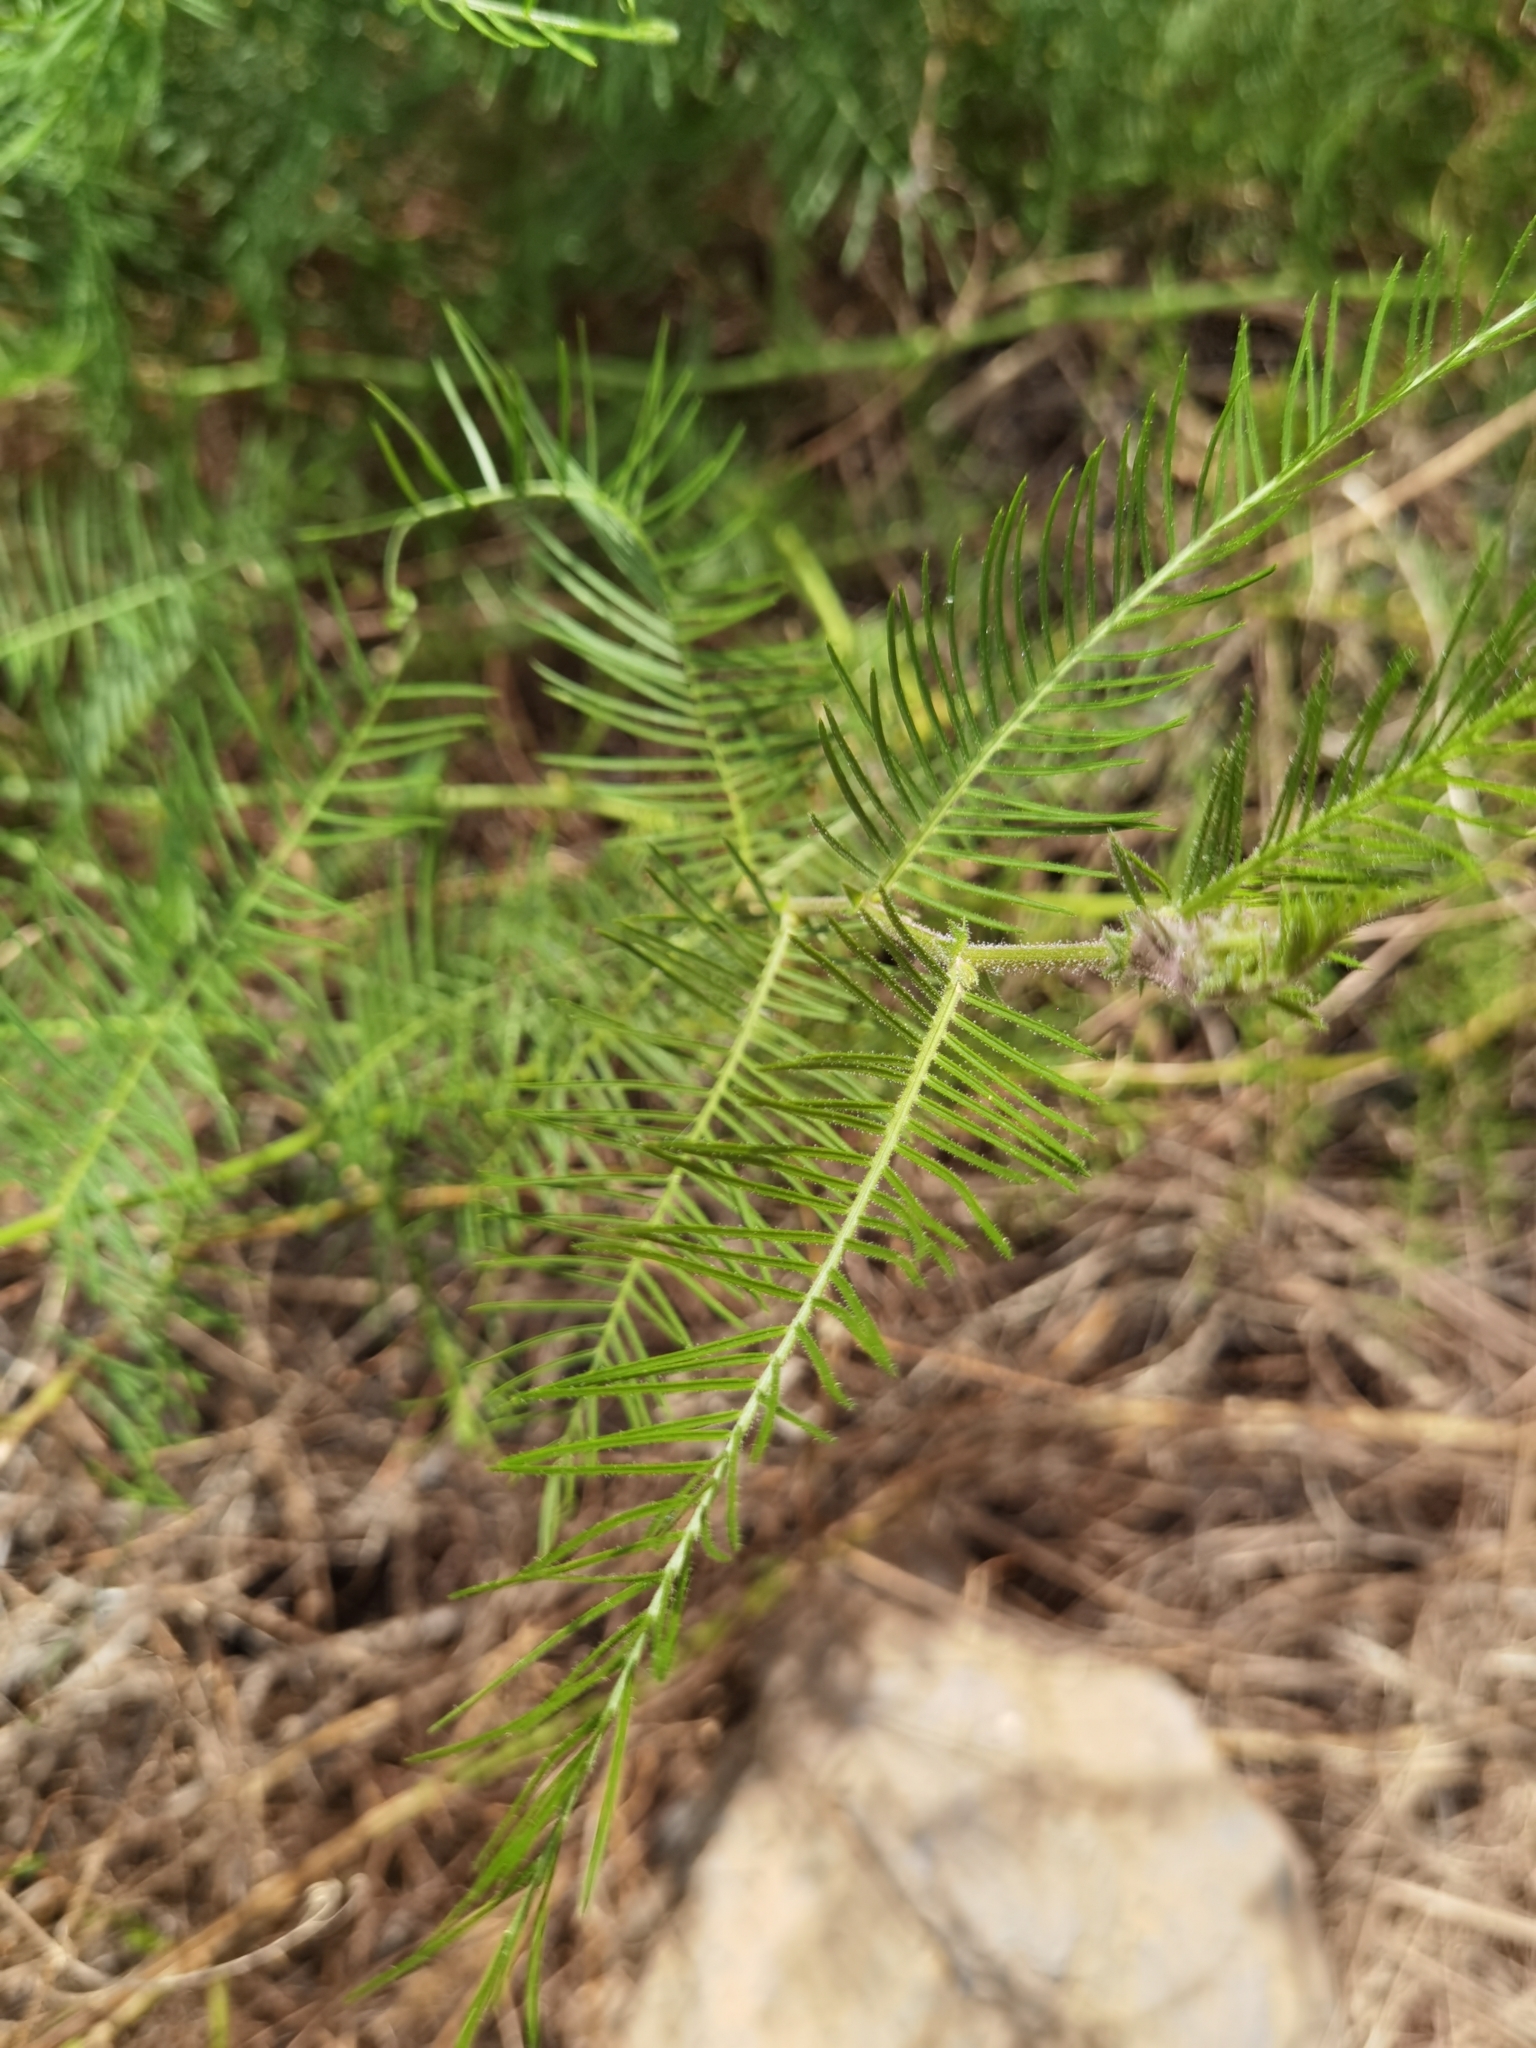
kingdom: Plantae
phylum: Tracheophyta
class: Magnoliopsida
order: Fabales
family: Fabaceae
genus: Cicer
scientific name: Cicer canariense
